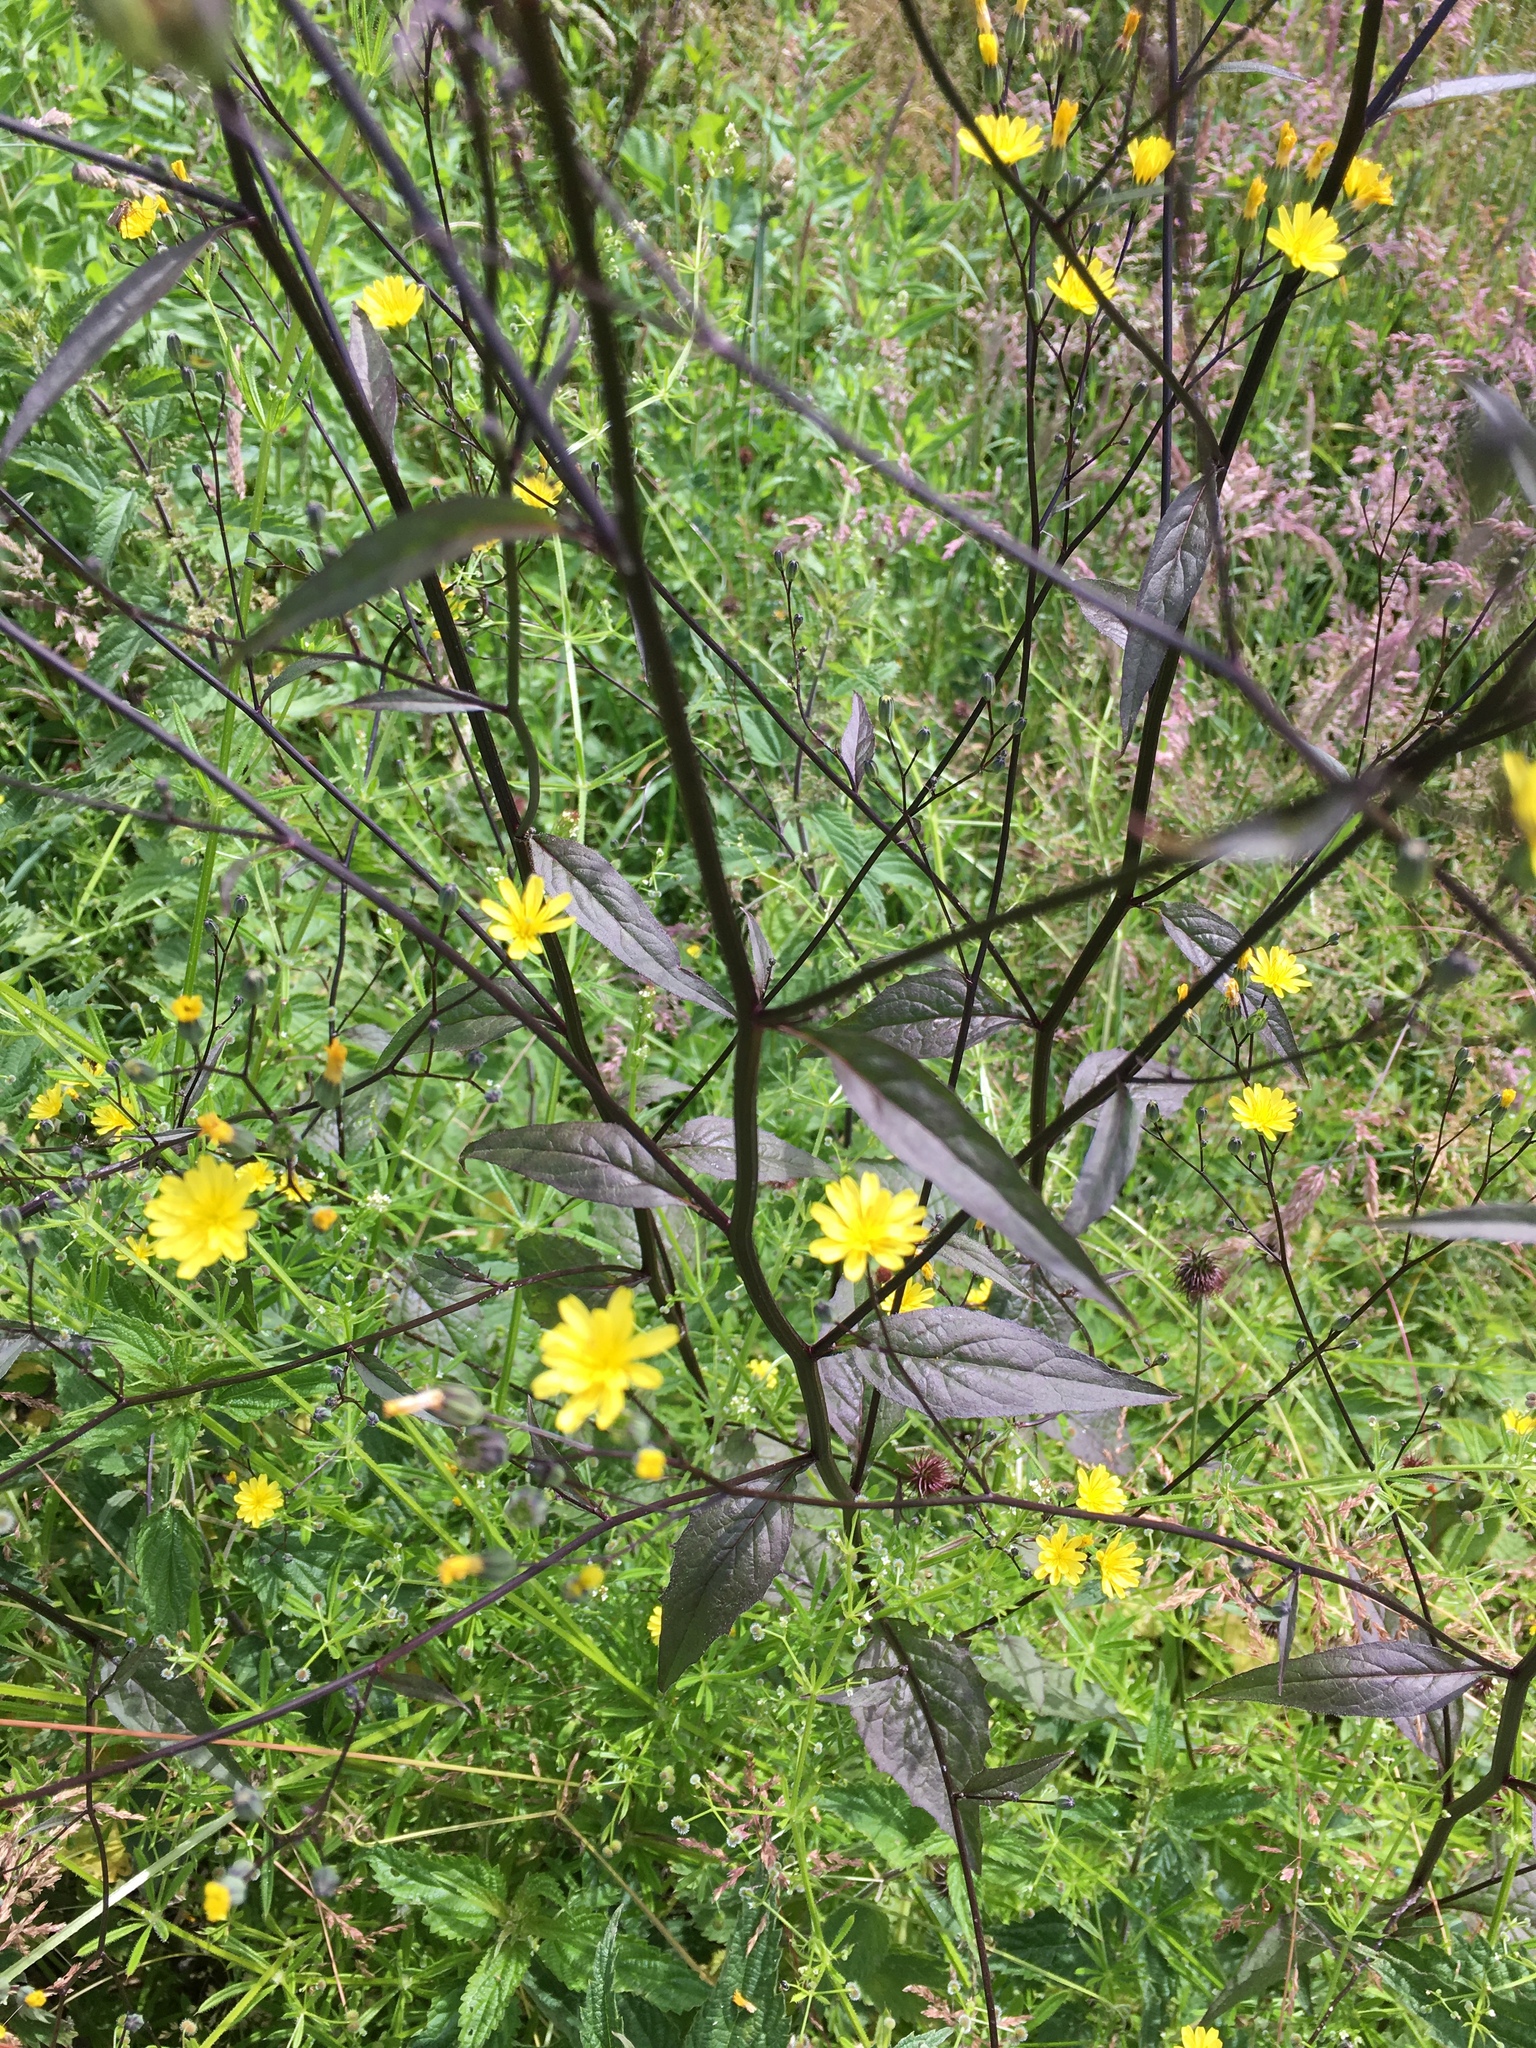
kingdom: Plantae
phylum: Tracheophyta
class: Magnoliopsida
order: Asterales
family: Asteraceae
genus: Lapsana
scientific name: Lapsana communis
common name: Nipplewort
